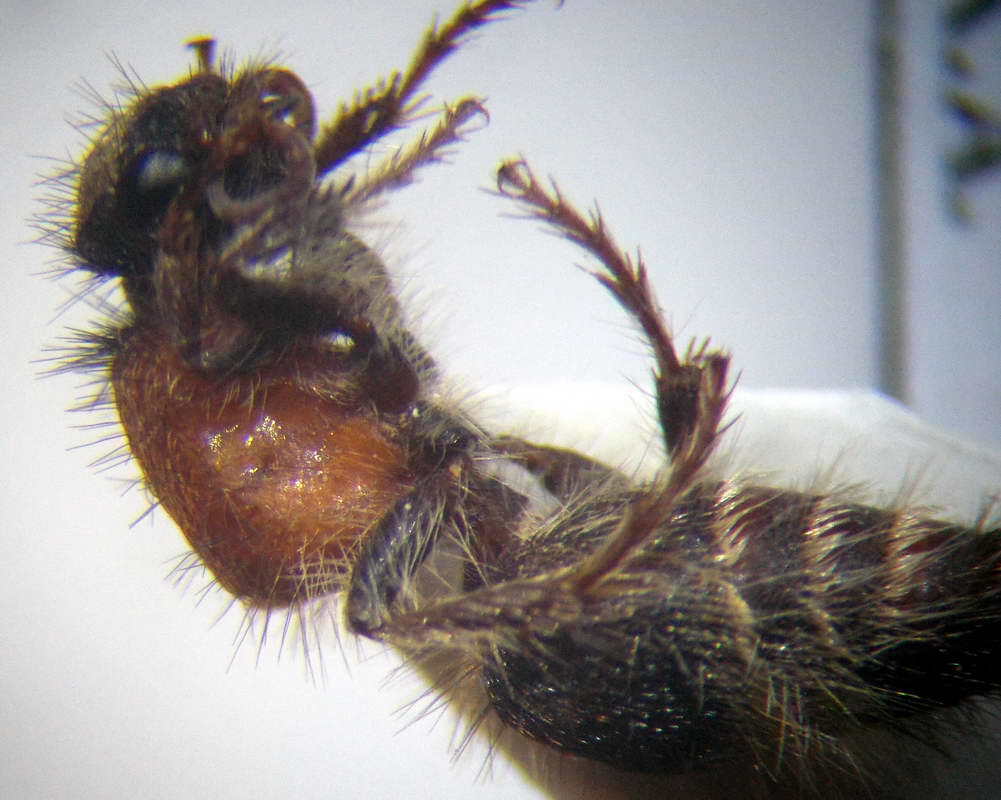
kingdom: Animalia
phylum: Arthropoda
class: Insecta
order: Hymenoptera
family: Mutillidae
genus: Nemka
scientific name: Nemka viduata
